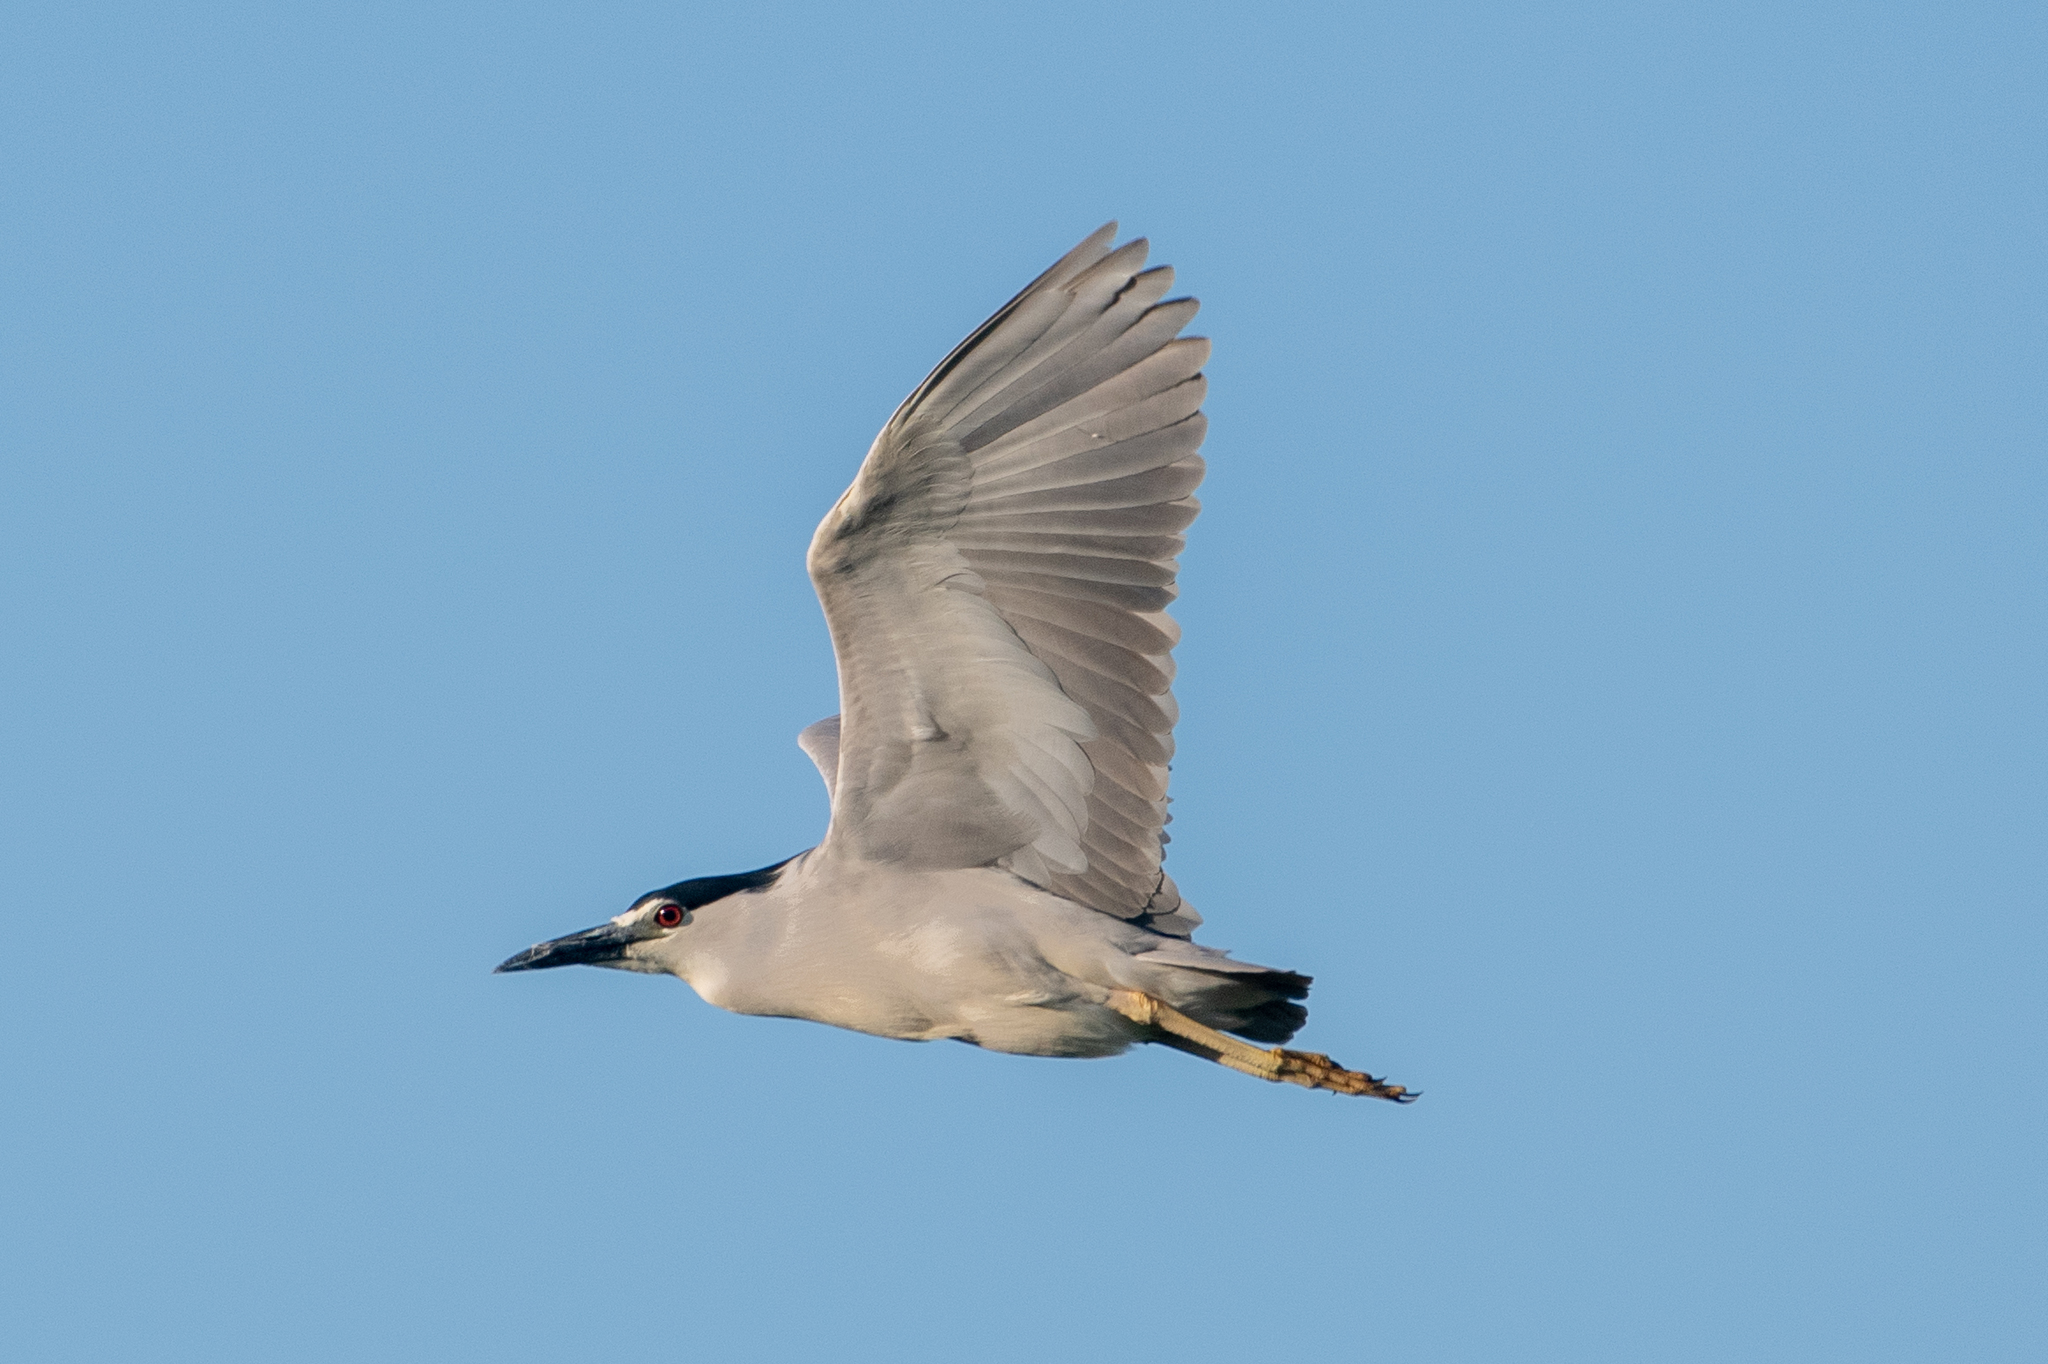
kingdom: Animalia
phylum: Chordata
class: Aves
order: Pelecaniformes
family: Ardeidae
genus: Nycticorax
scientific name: Nycticorax nycticorax
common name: Black-crowned night heron
